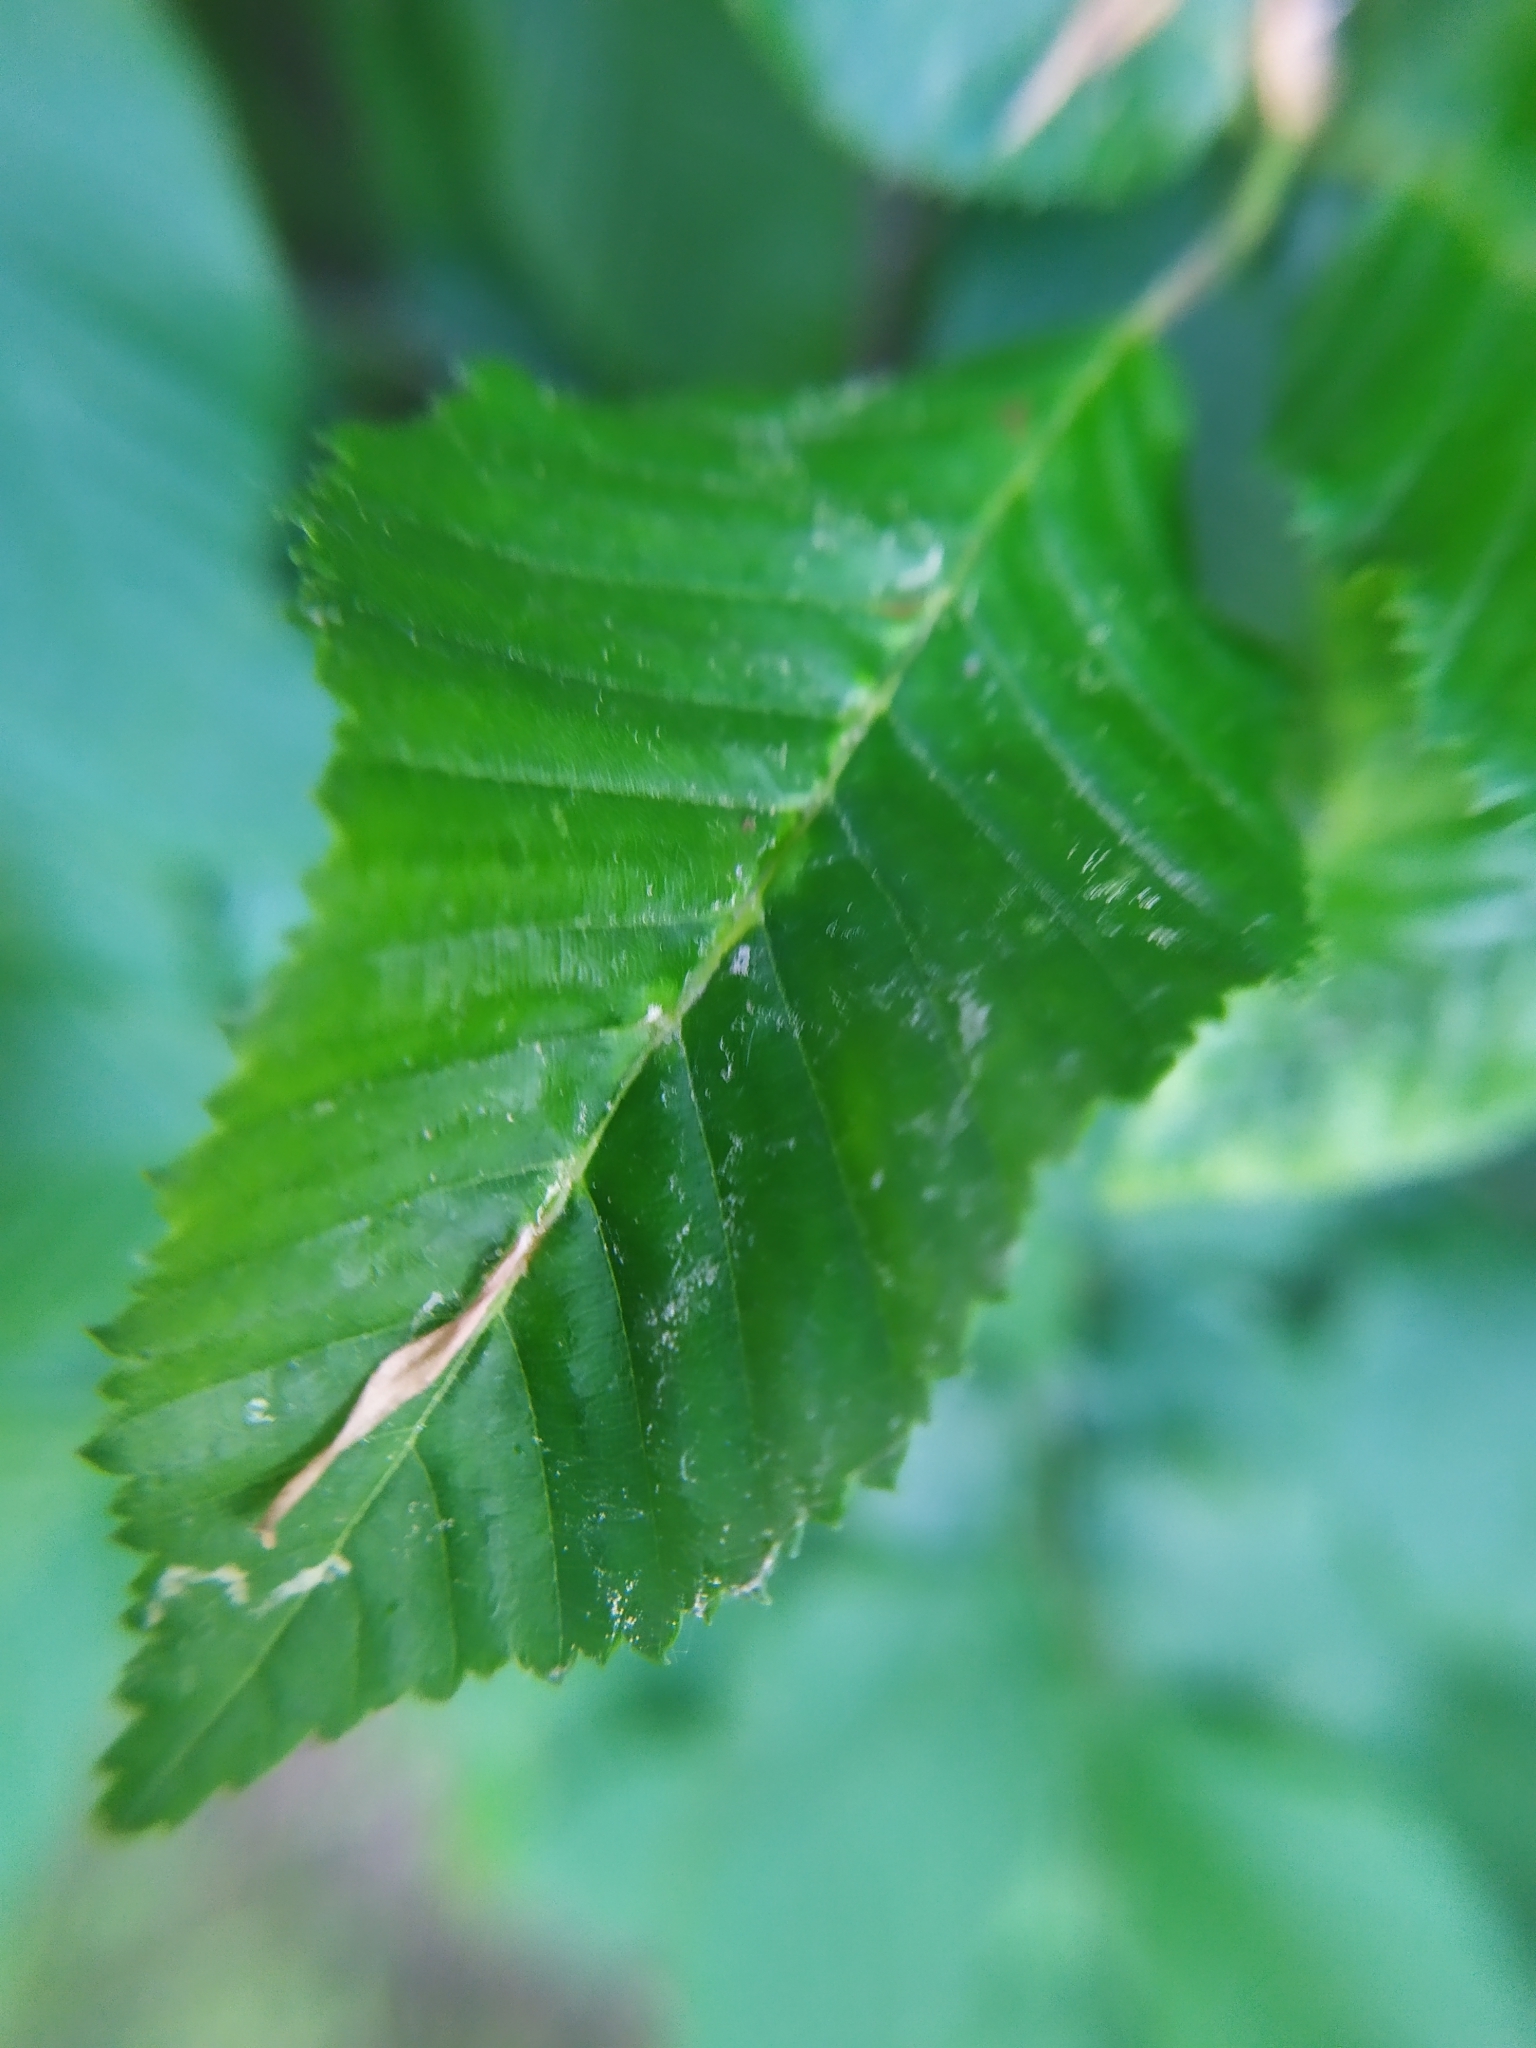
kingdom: Animalia
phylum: Arthropoda
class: Insecta
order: Diptera
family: Cecidomyiidae
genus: Zygiobia
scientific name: Zygiobia carpini
